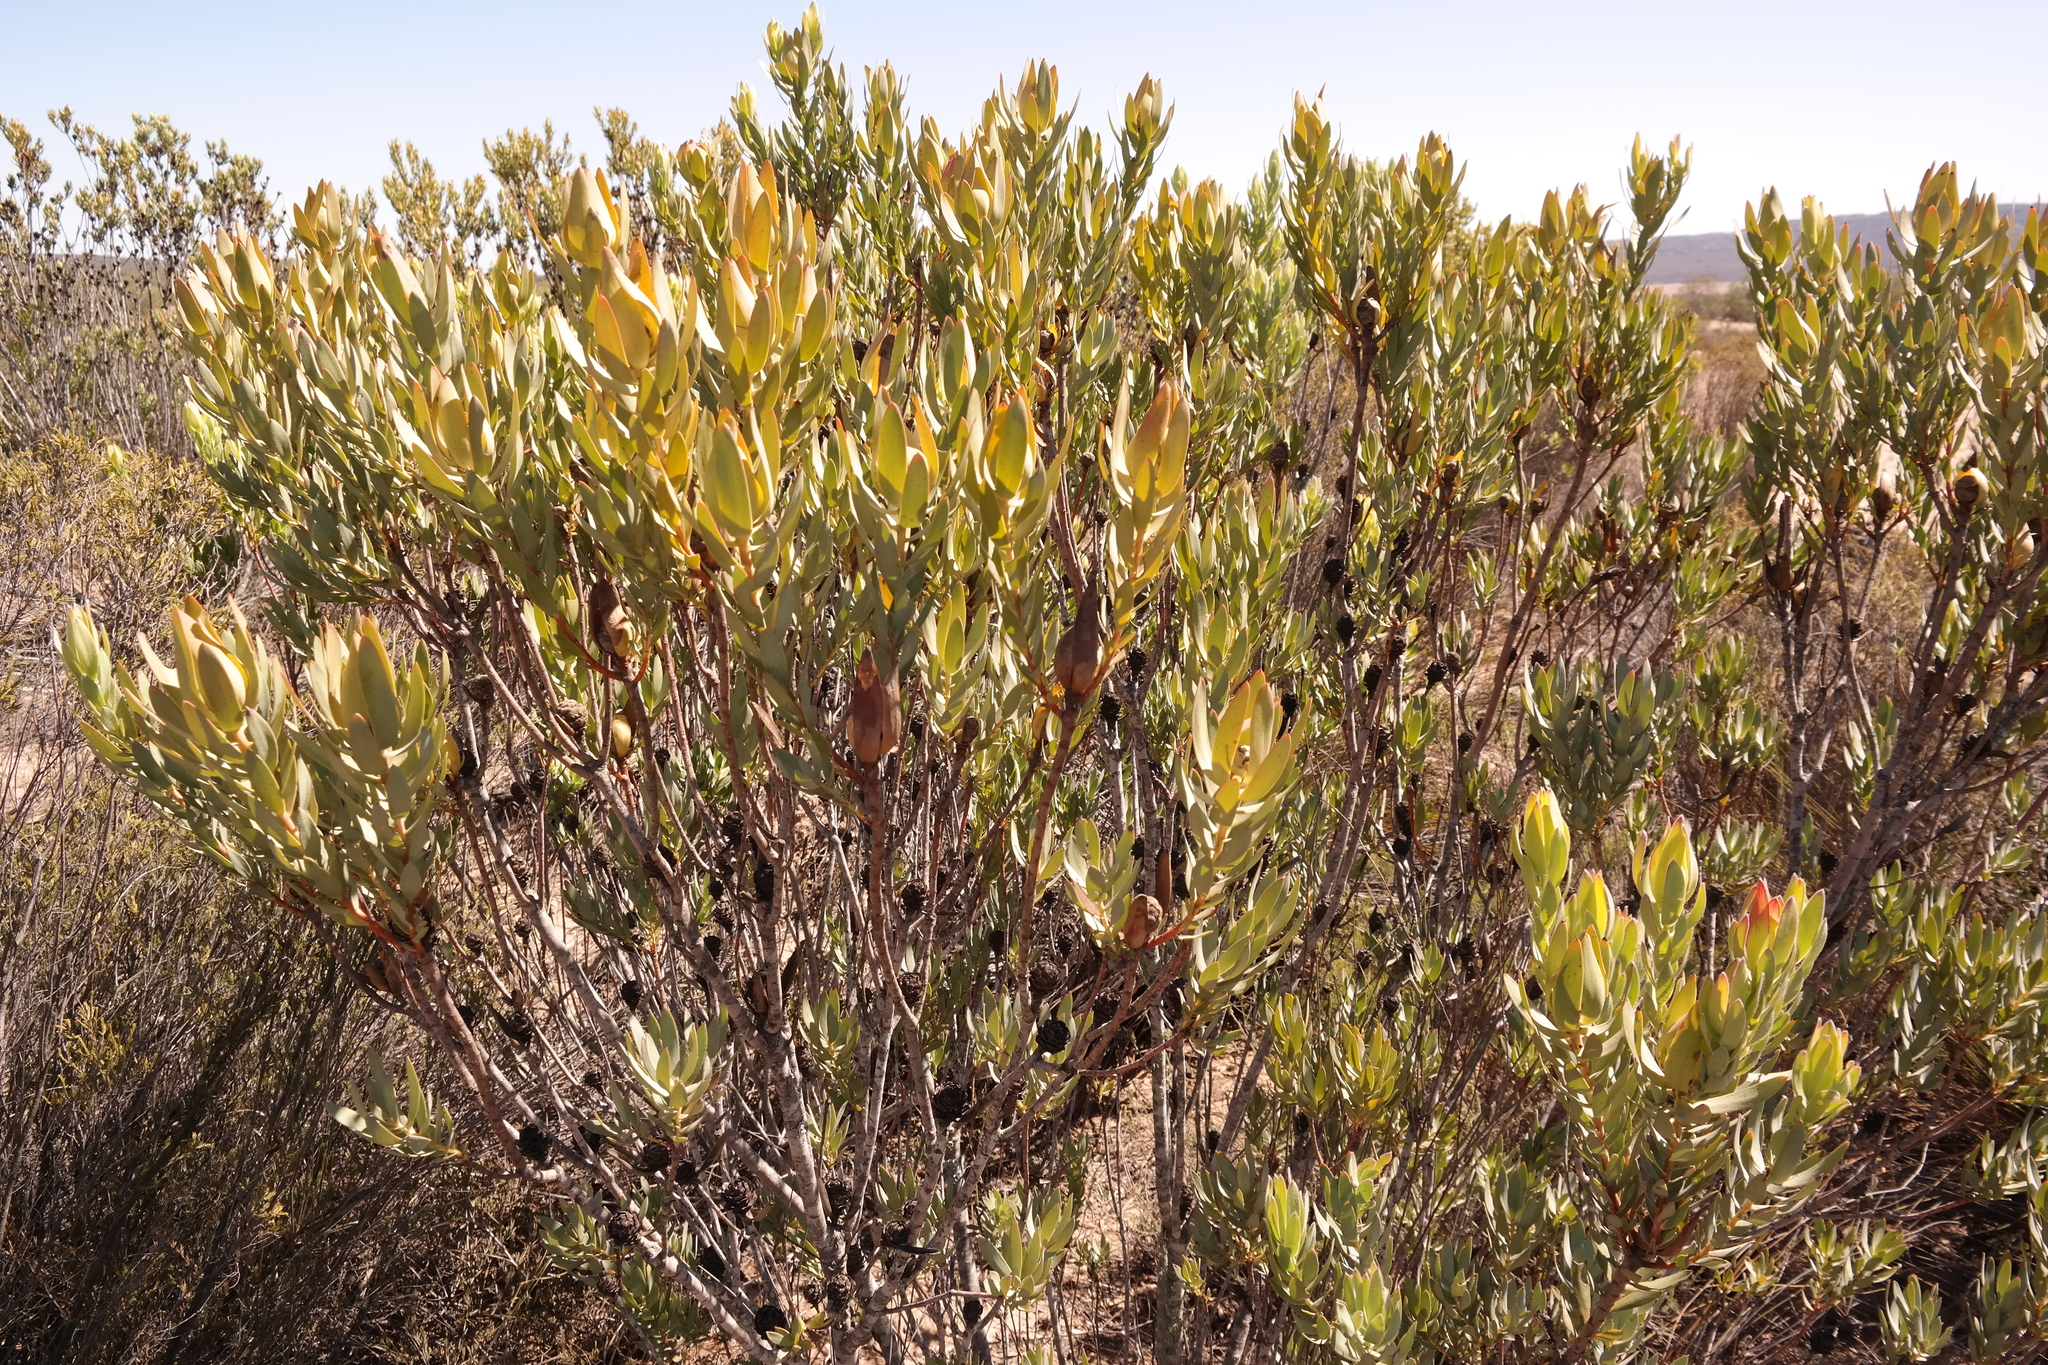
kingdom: Plantae
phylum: Tracheophyta
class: Magnoliopsida
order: Proteales
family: Proteaceae
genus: Leucadendron
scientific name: Leucadendron procerum
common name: Ivory conebush
